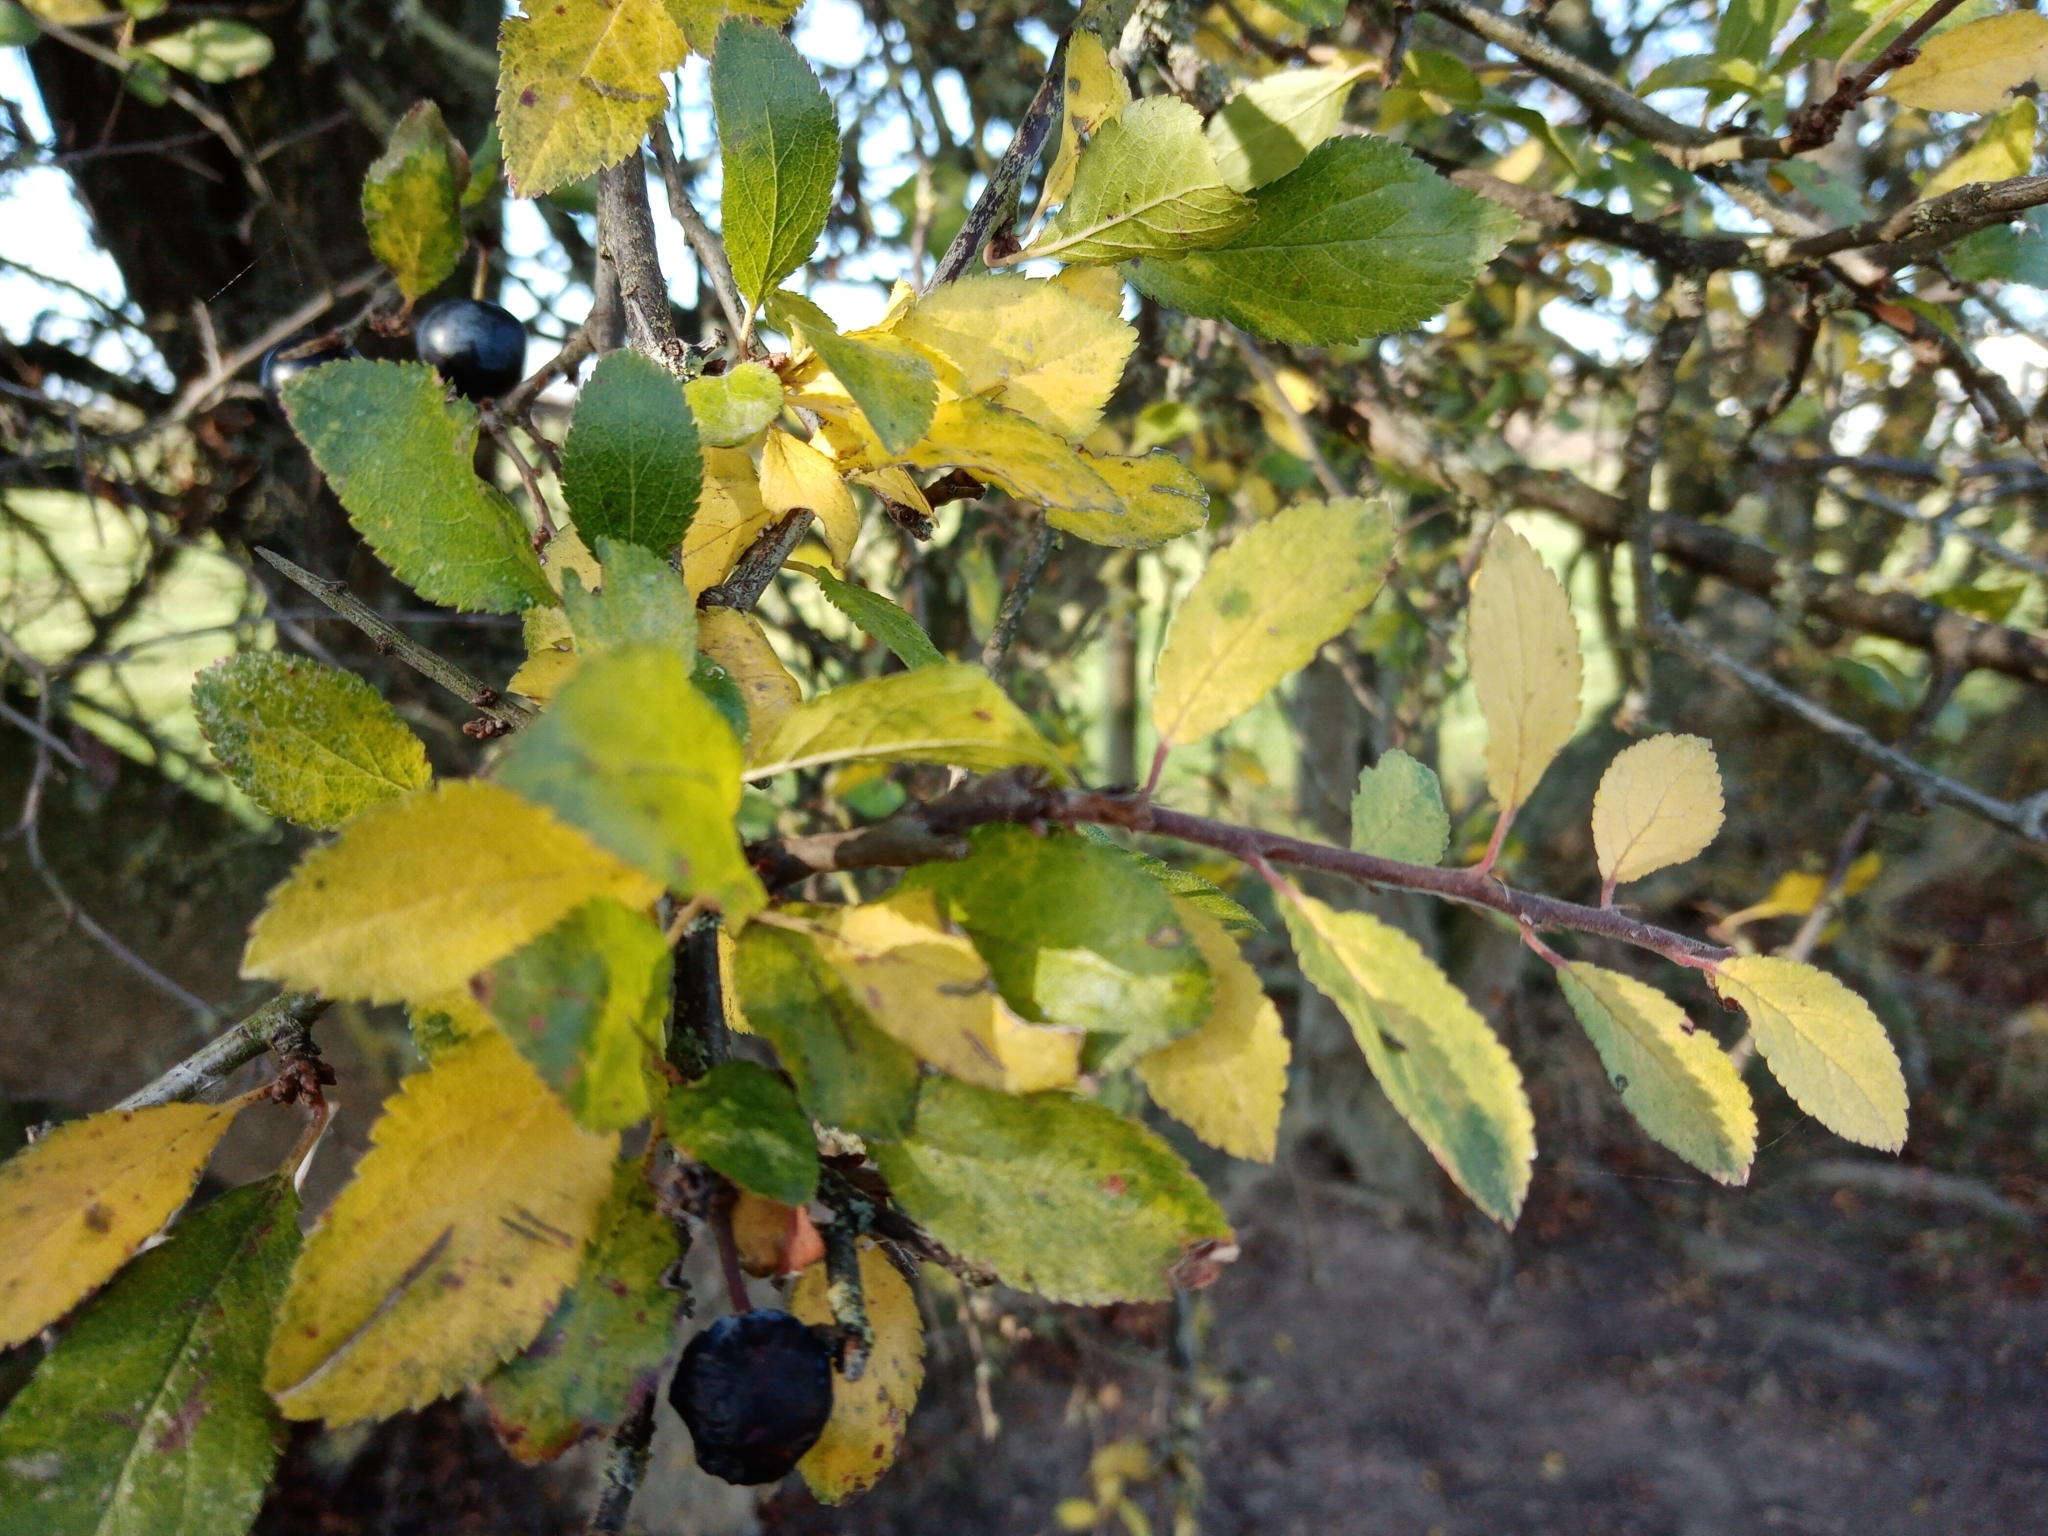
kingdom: Plantae
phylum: Tracheophyta
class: Magnoliopsida
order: Rosales
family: Rosaceae
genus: Prunus
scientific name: Prunus spinosa
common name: Blackthorn
